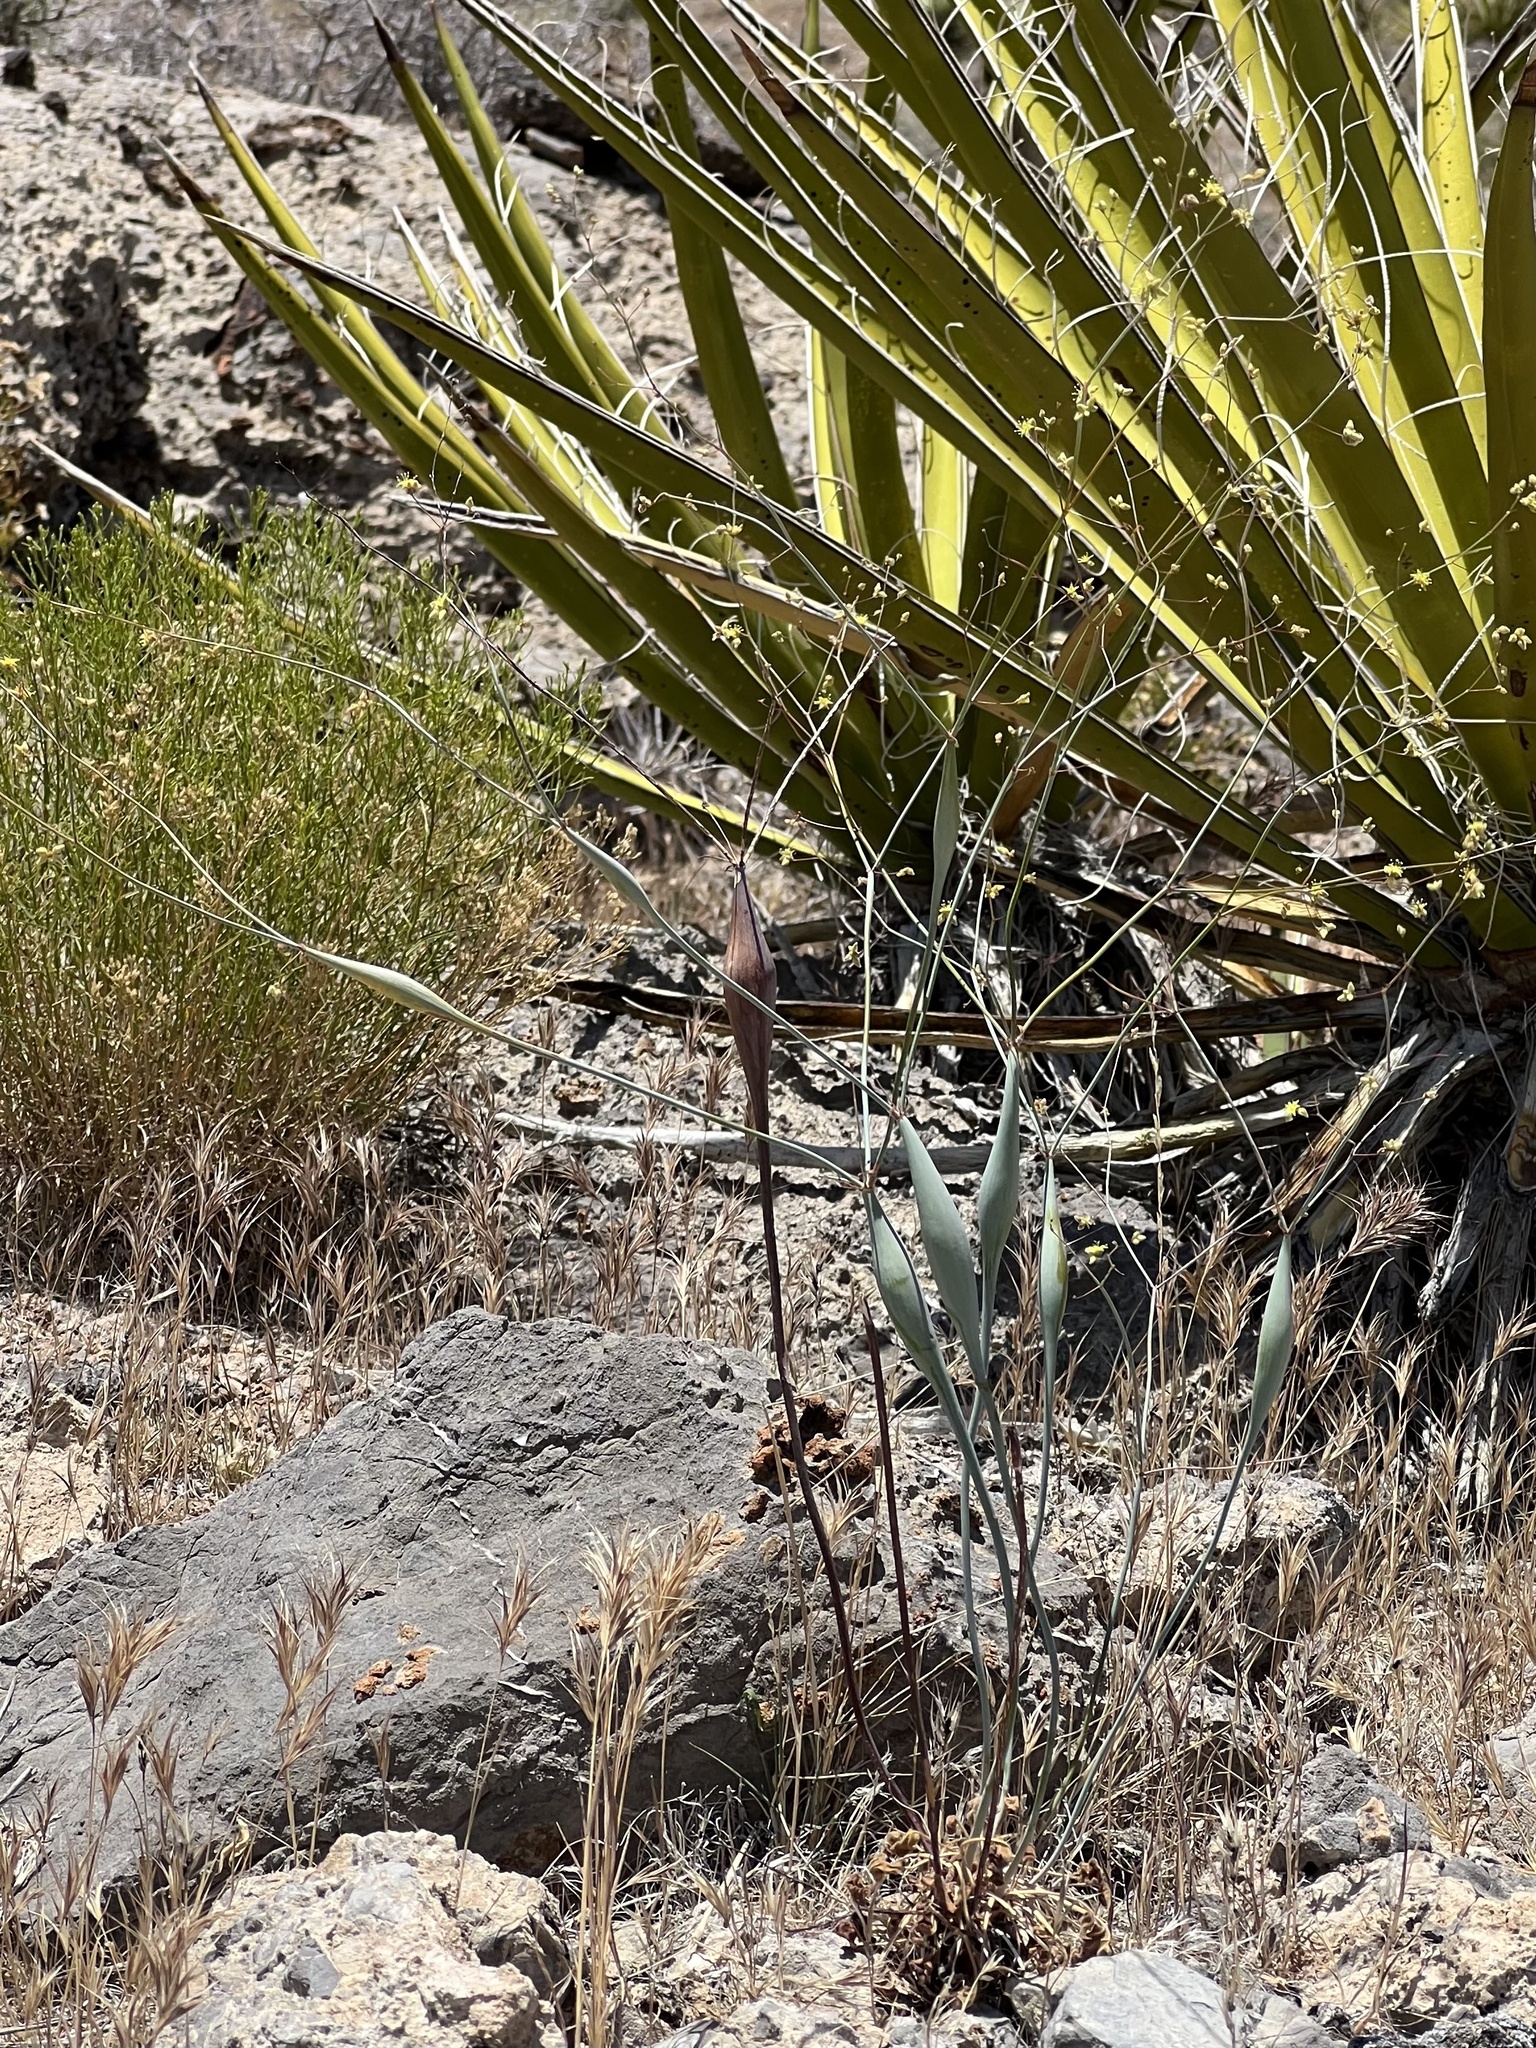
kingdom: Plantae
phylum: Tracheophyta
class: Magnoliopsida
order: Caryophyllales
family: Polygonaceae
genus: Eriogonum
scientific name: Eriogonum inflatum
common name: Desert trumpet
